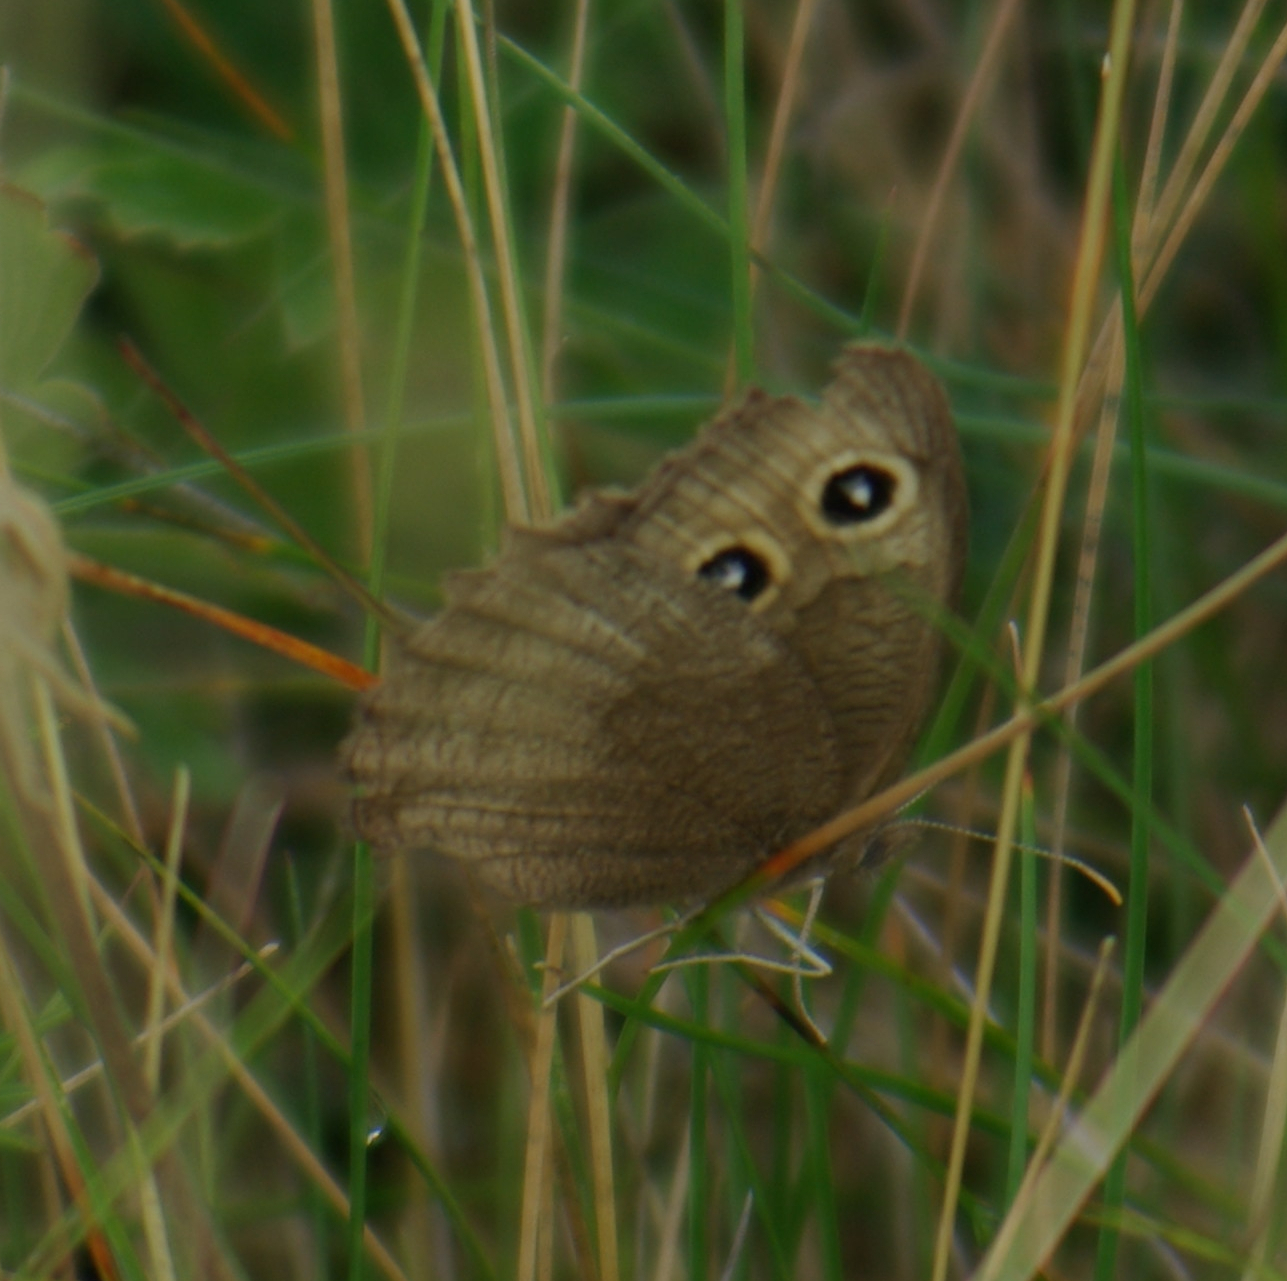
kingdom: Animalia
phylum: Arthropoda
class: Insecta
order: Lepidoptera
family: Nymphalidae
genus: Cercyonis
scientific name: Cercyonis pegala
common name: Common wood-nymph
